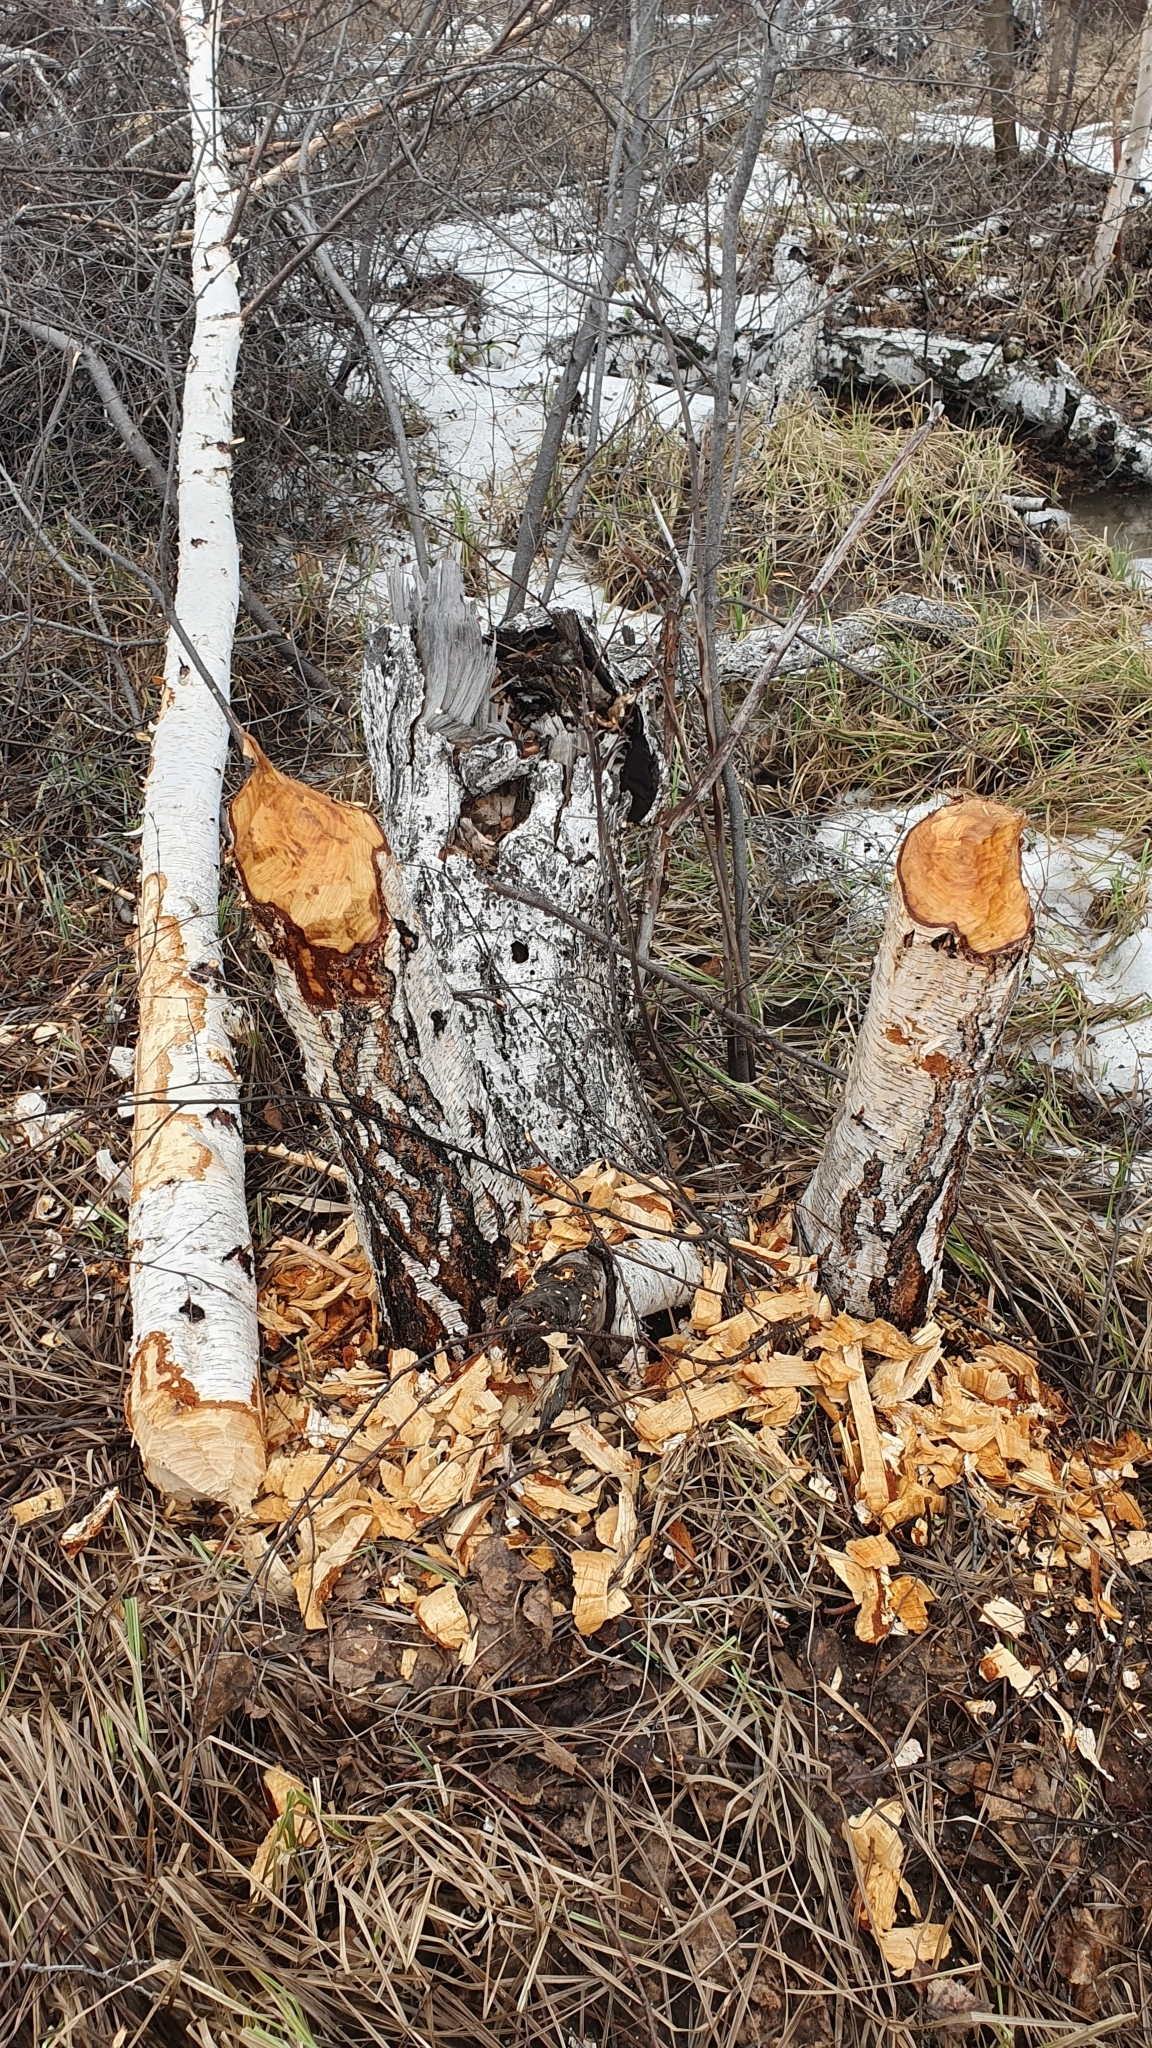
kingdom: Animalia
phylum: Chordata
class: Mammalia
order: Rodentia
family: Castoridae
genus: Castor
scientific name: Castor fiber
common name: Eurasian beaver
